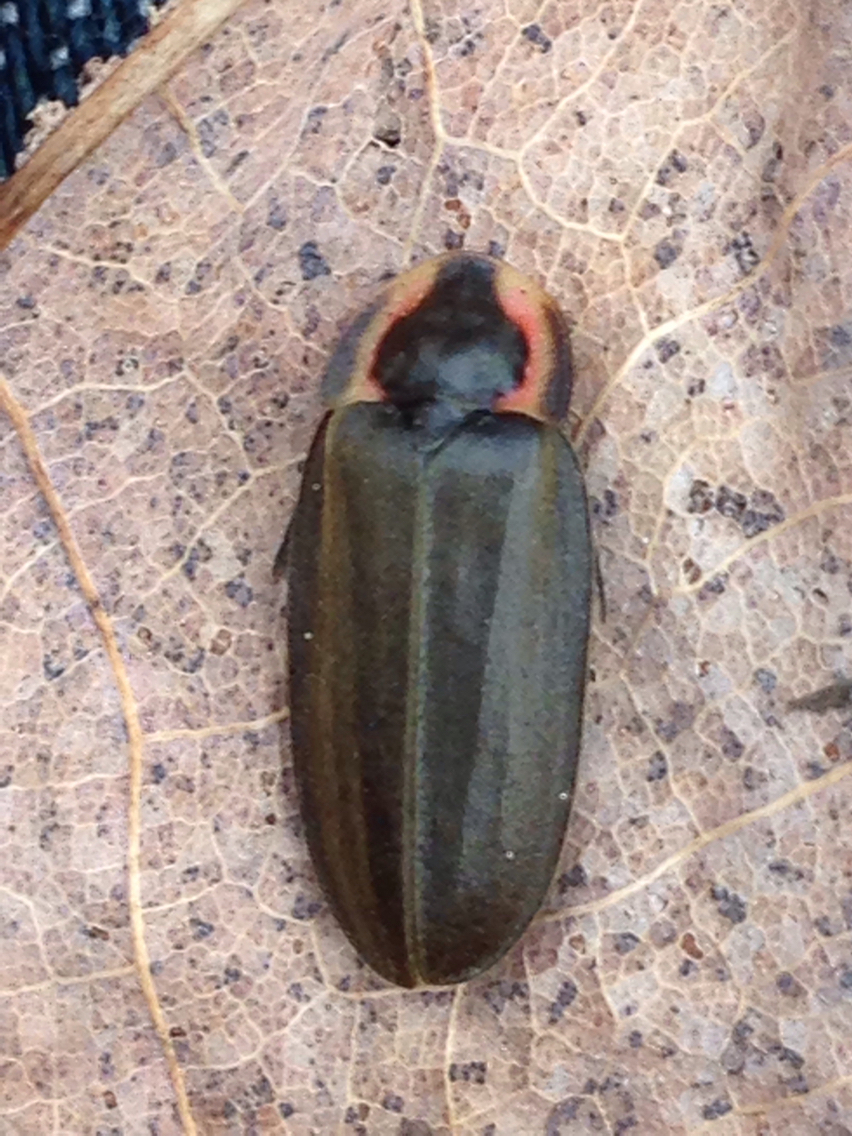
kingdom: Animalia
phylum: Arthropoda
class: Insecta
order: Coleoptera
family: Lampyridae
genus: Photinus
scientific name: Photinus corrusca
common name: Winter firefly
